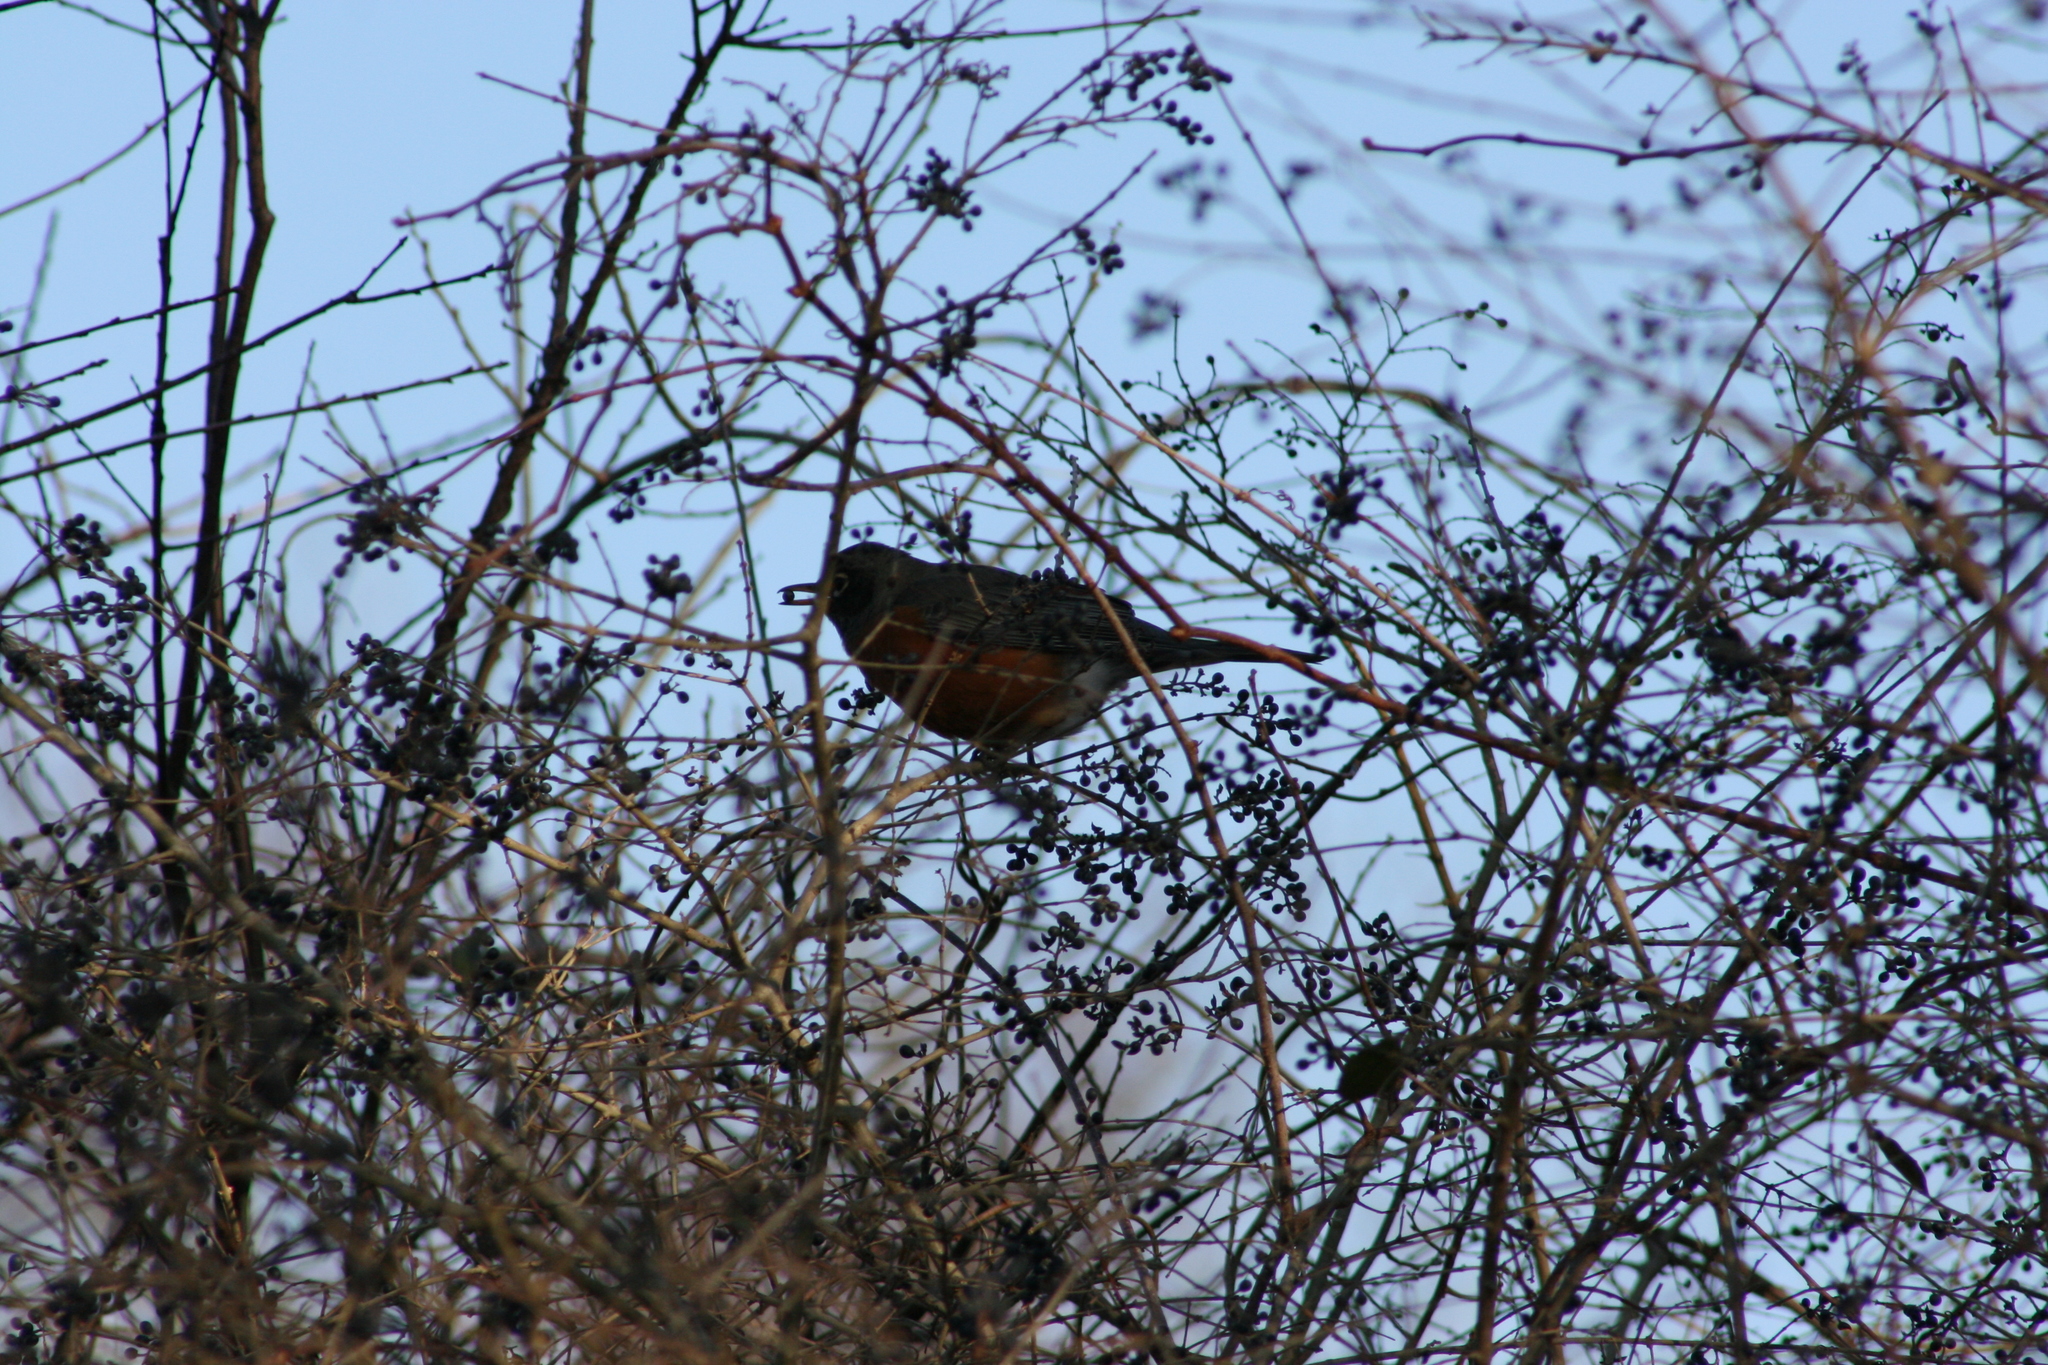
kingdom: Animalia
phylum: Chordata
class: Aves
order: Passeriformes
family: Turdidae
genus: Turdus
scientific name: Turdus migratorius
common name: American robin
